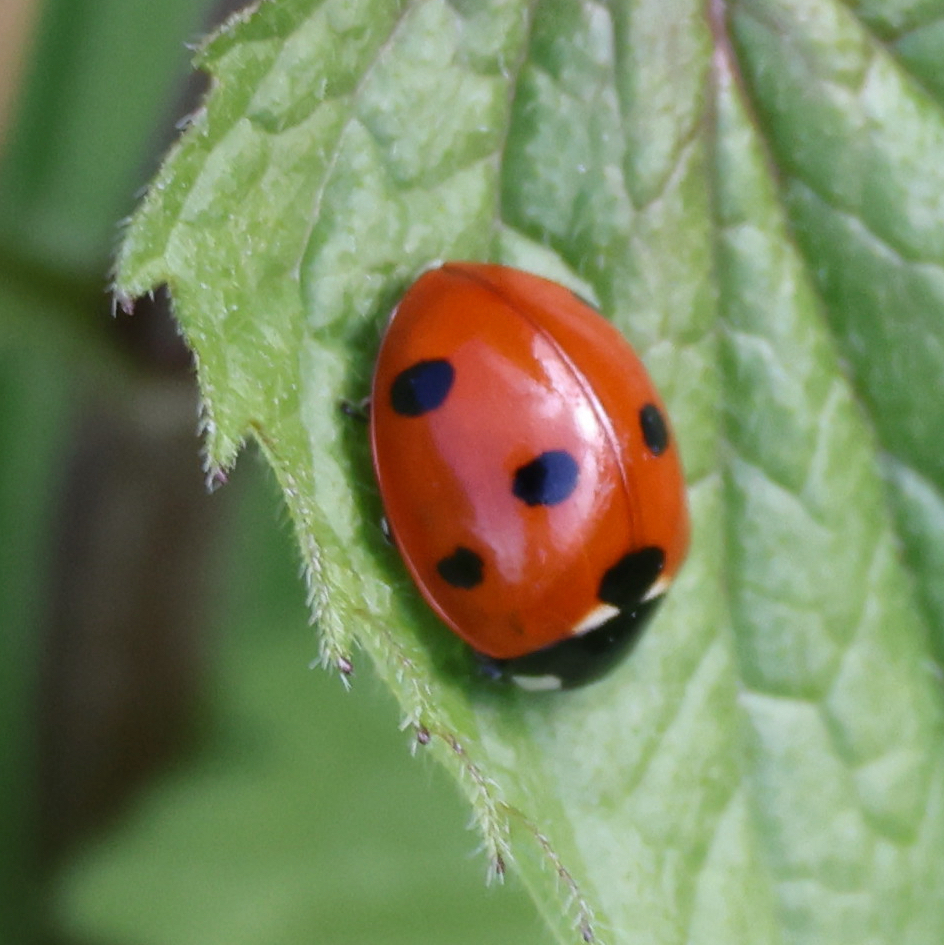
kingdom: Animalia
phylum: Arthropoda
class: Insecta
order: Coleoptera
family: Coccinellidae
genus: Coccinella
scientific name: Coccinella septempunctata
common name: Sevenspotted lady beetle
